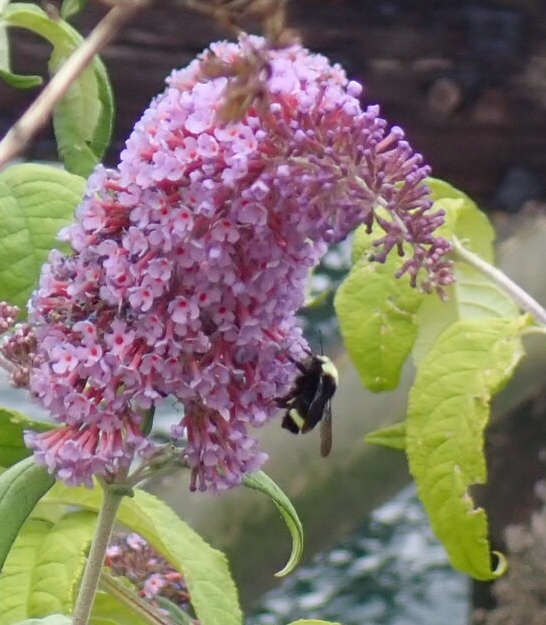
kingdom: Animalia
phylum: Arthropoda
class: Insecta
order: Hymenoptera
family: Apidae
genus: Bombus
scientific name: Bombus vosnesenskii
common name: Vosnesensky bumble bee
